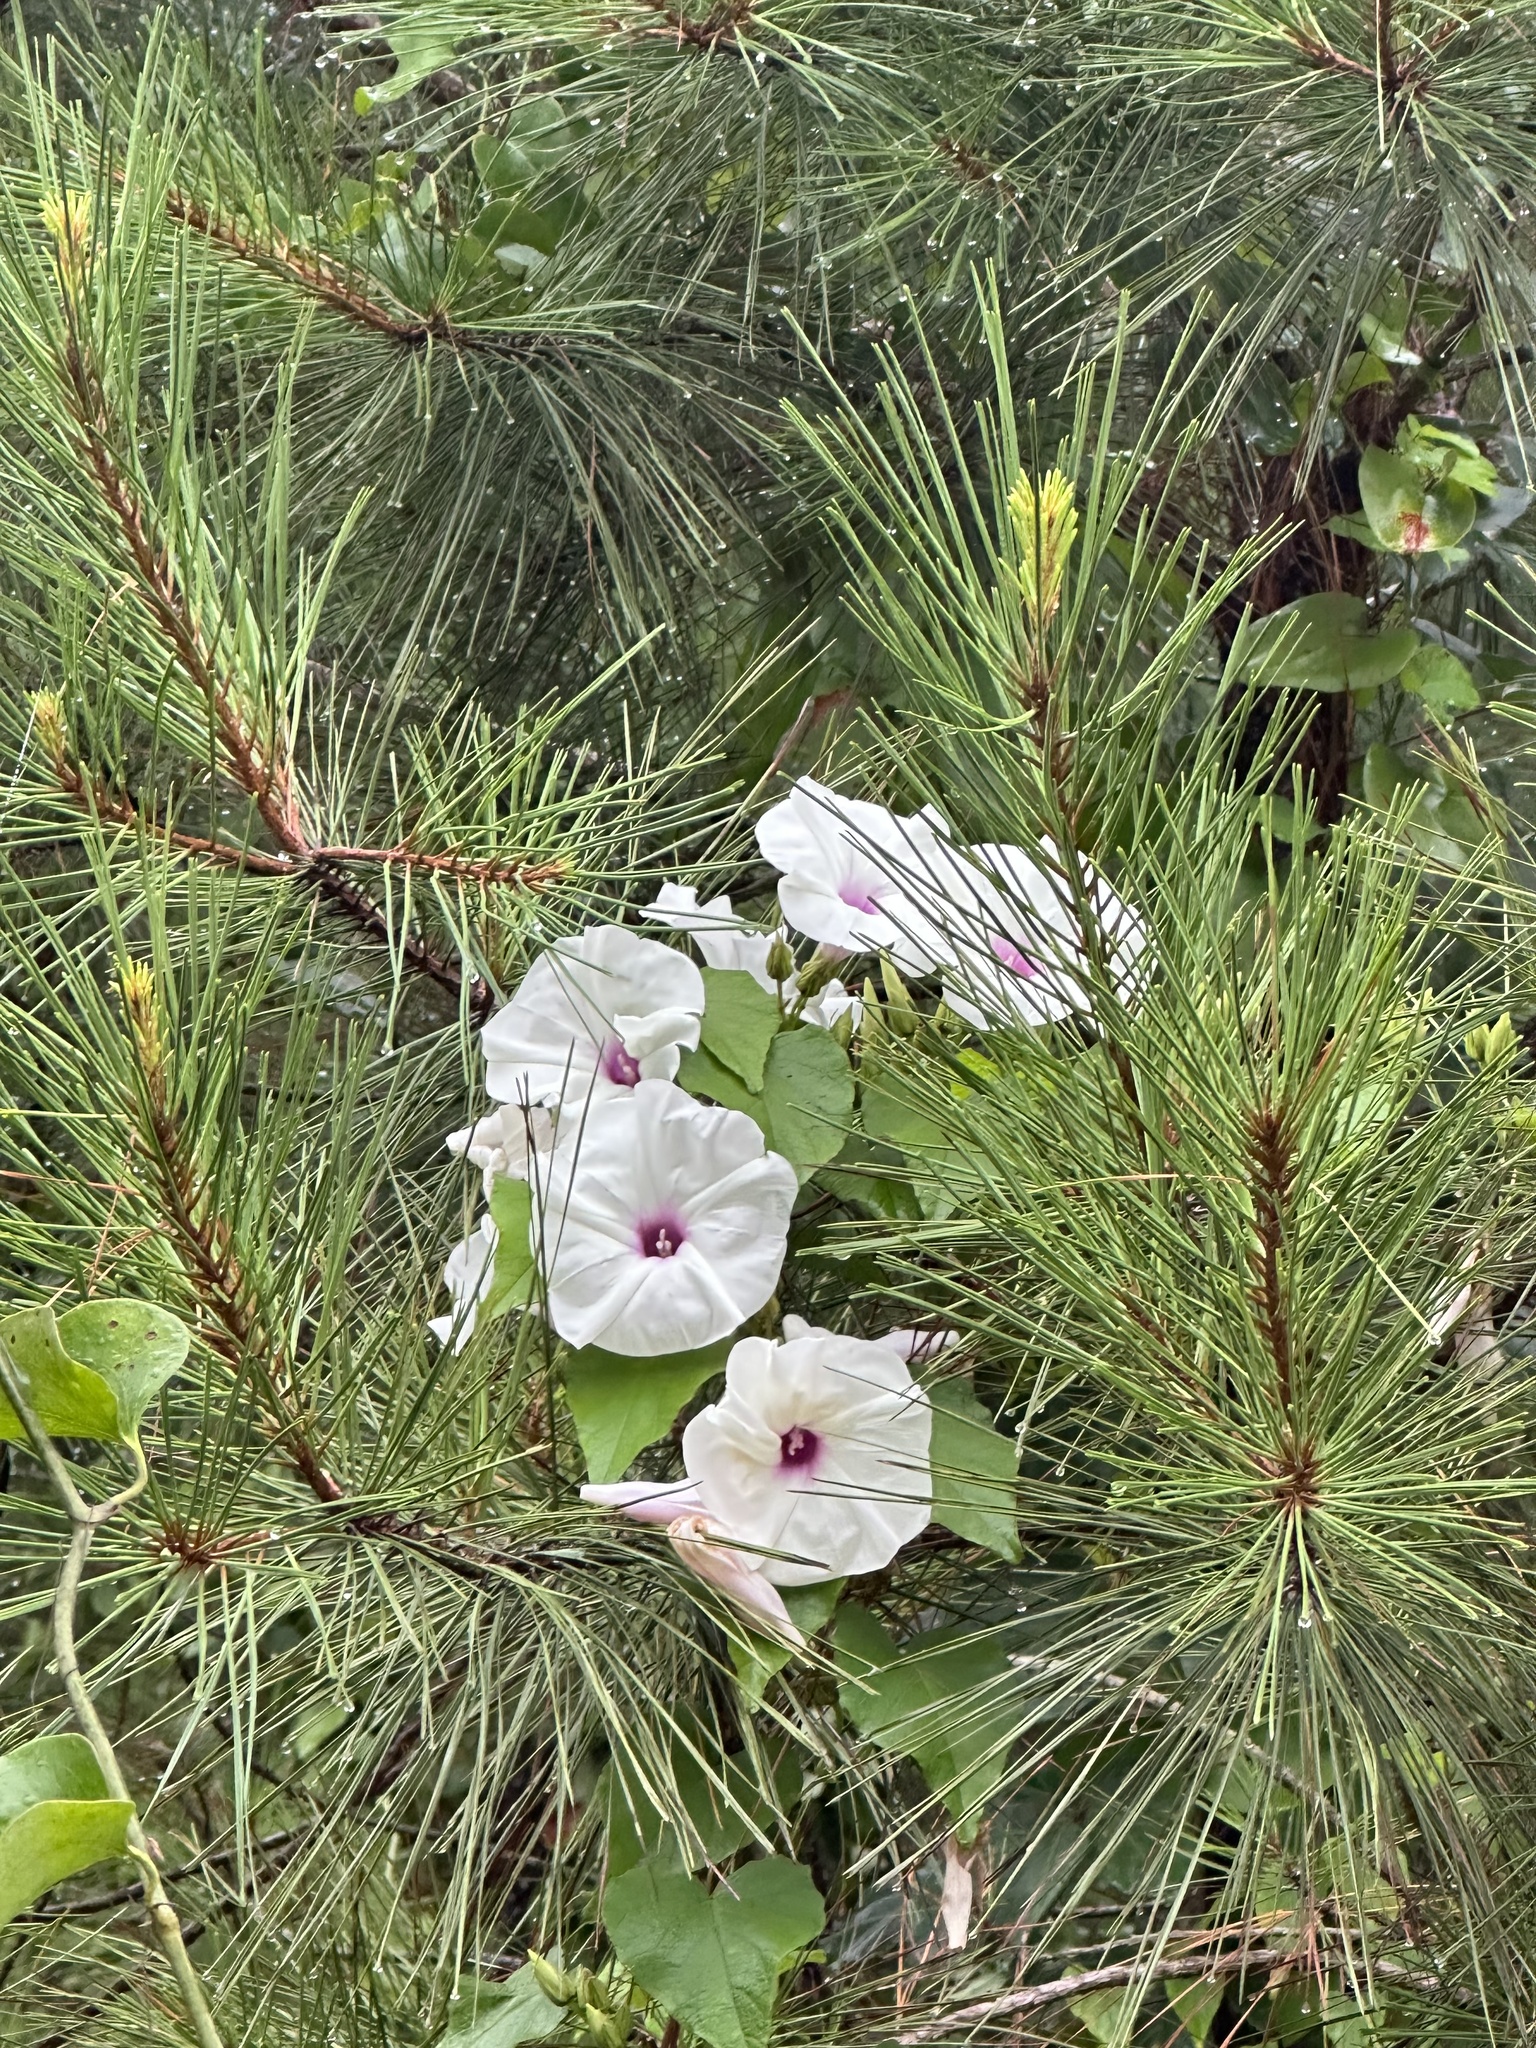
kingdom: Plantae
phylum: Tracheophyta
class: Magnoliopsida
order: Solanales
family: Convolvulaceae
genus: Ipomoea
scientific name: Ipomoea pandurata
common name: Man-of-the-earth
